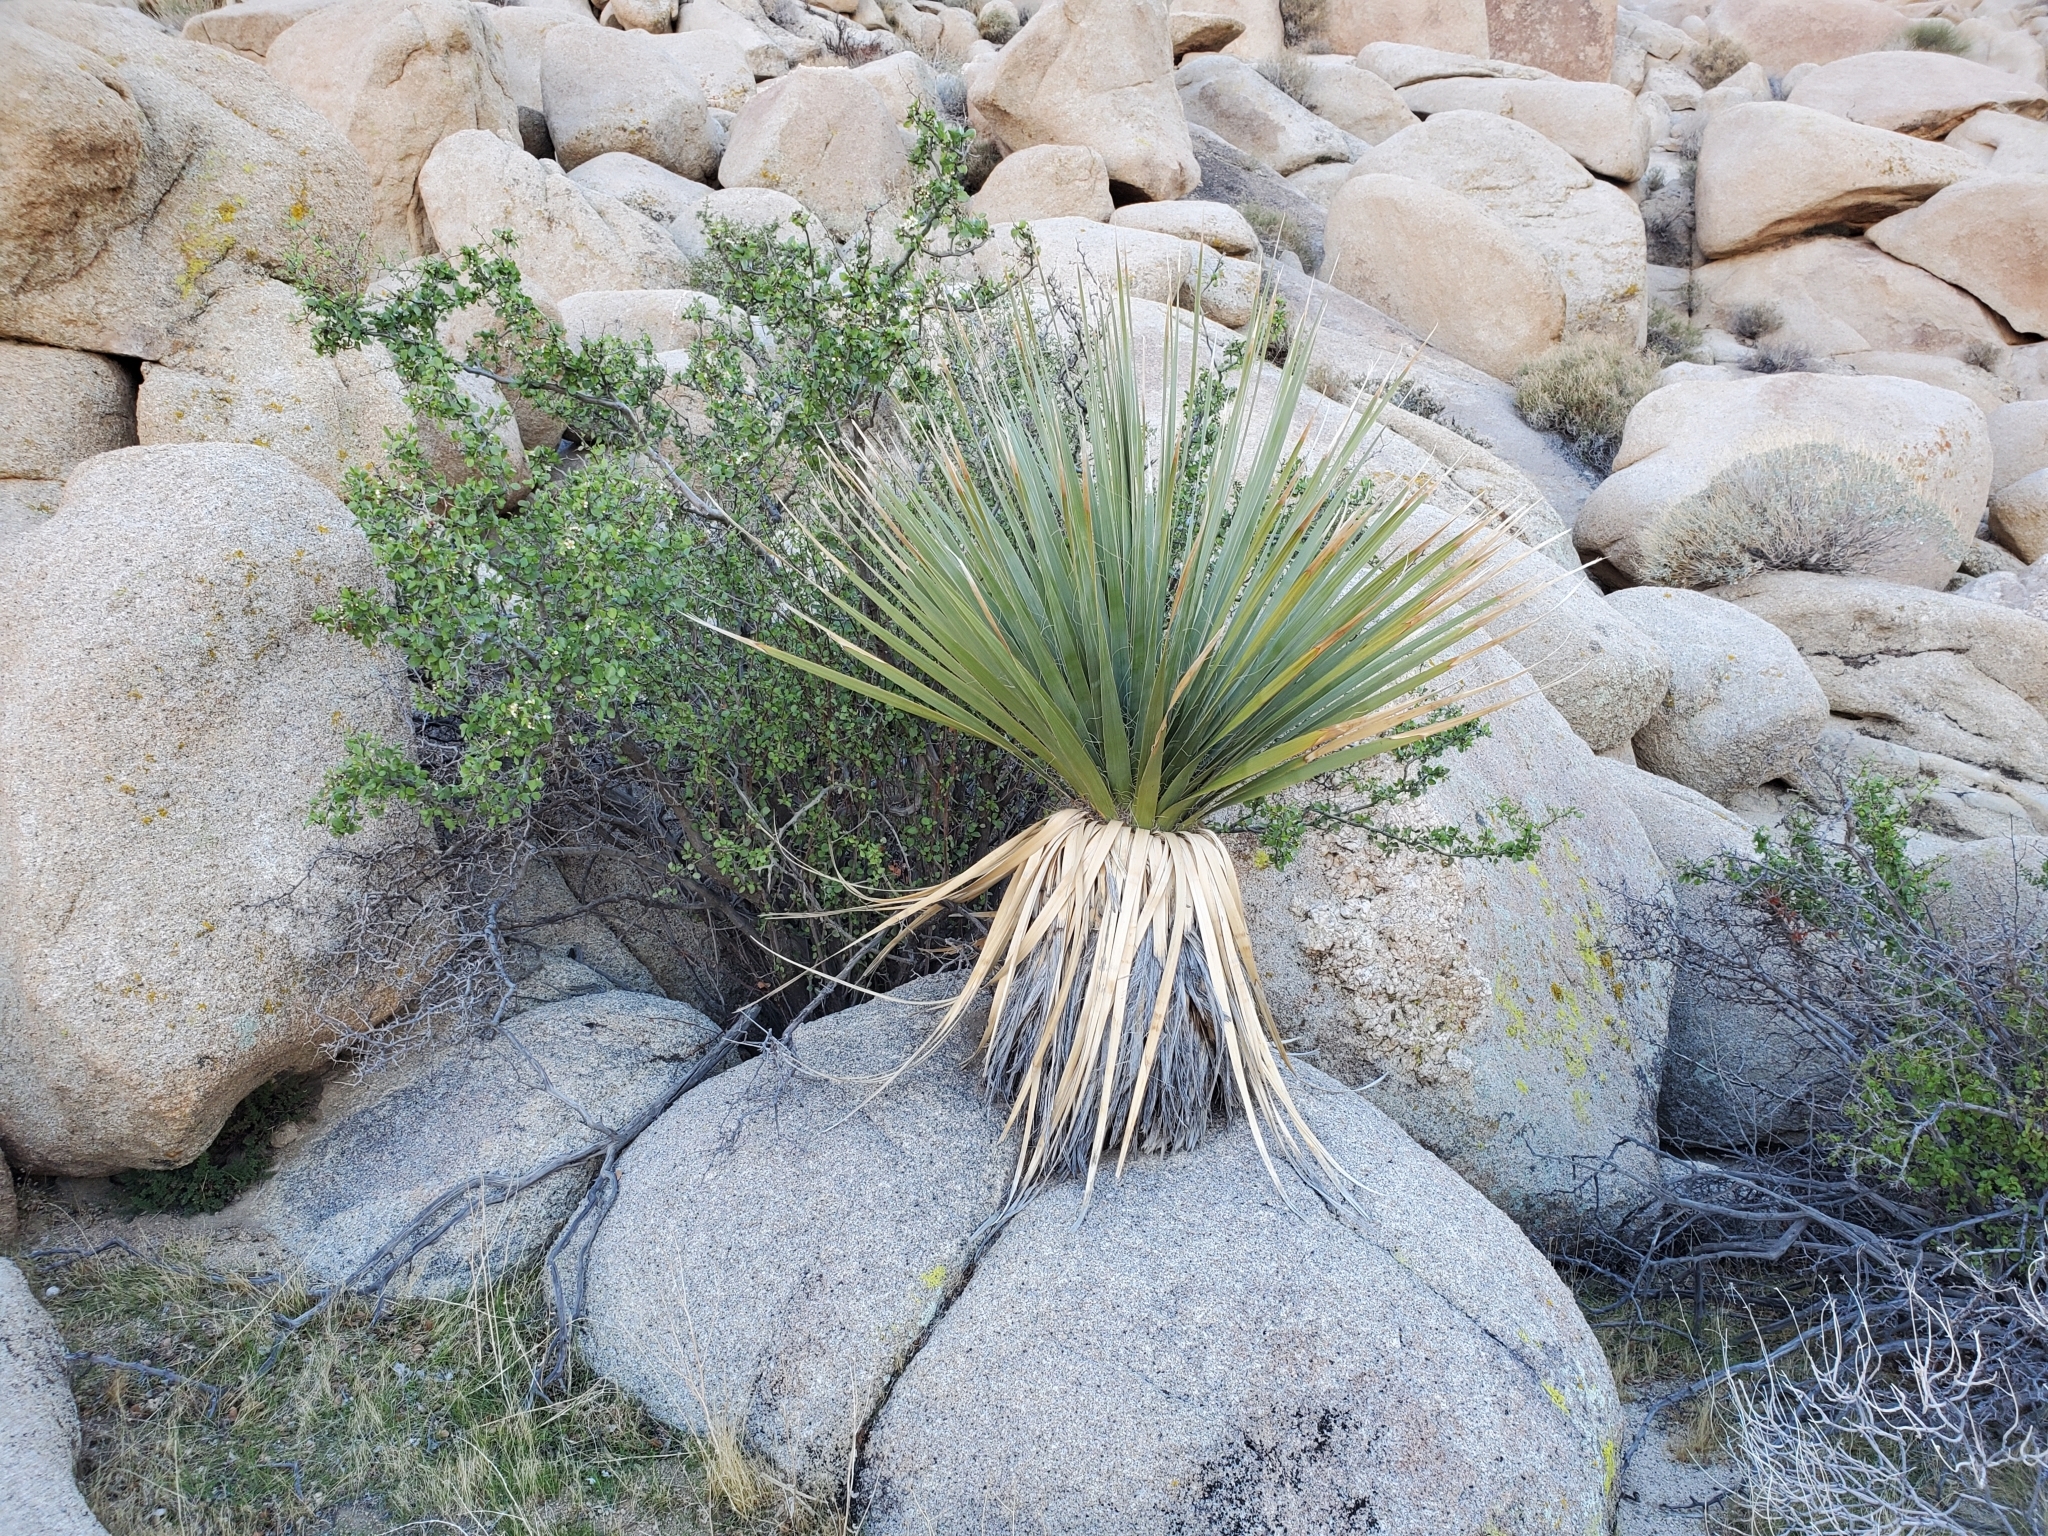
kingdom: Plantae
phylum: Tracheophyta
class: Magnoliopsida
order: Rosales
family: Rosaceae
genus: Prunus
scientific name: Prunus fremontii
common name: Desert apricot
